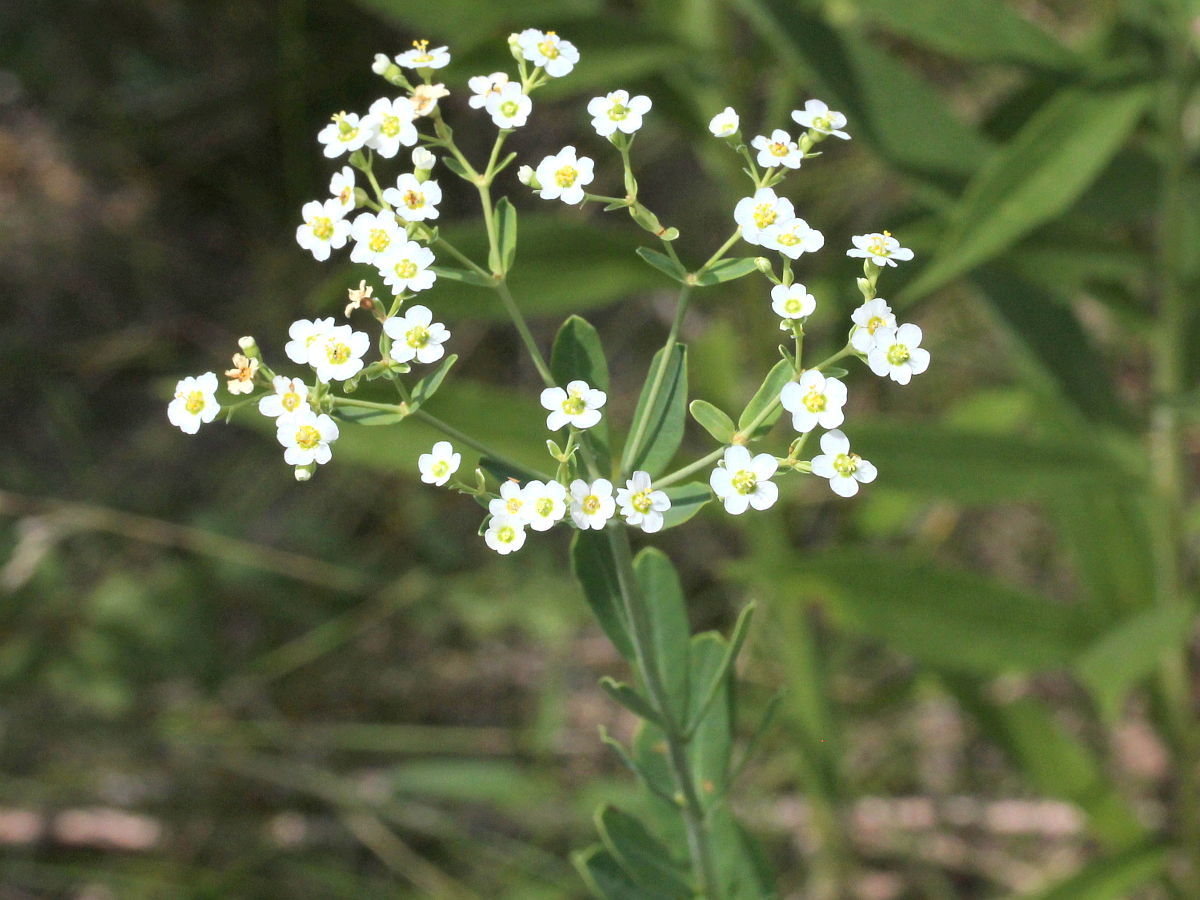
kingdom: Plantae
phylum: Tracheophyta
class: Magnoliopsida
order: Malpighiales
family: Euphorbiaceae
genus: Euphorbia
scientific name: Euphorbia corollata
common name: Flowering spurge
